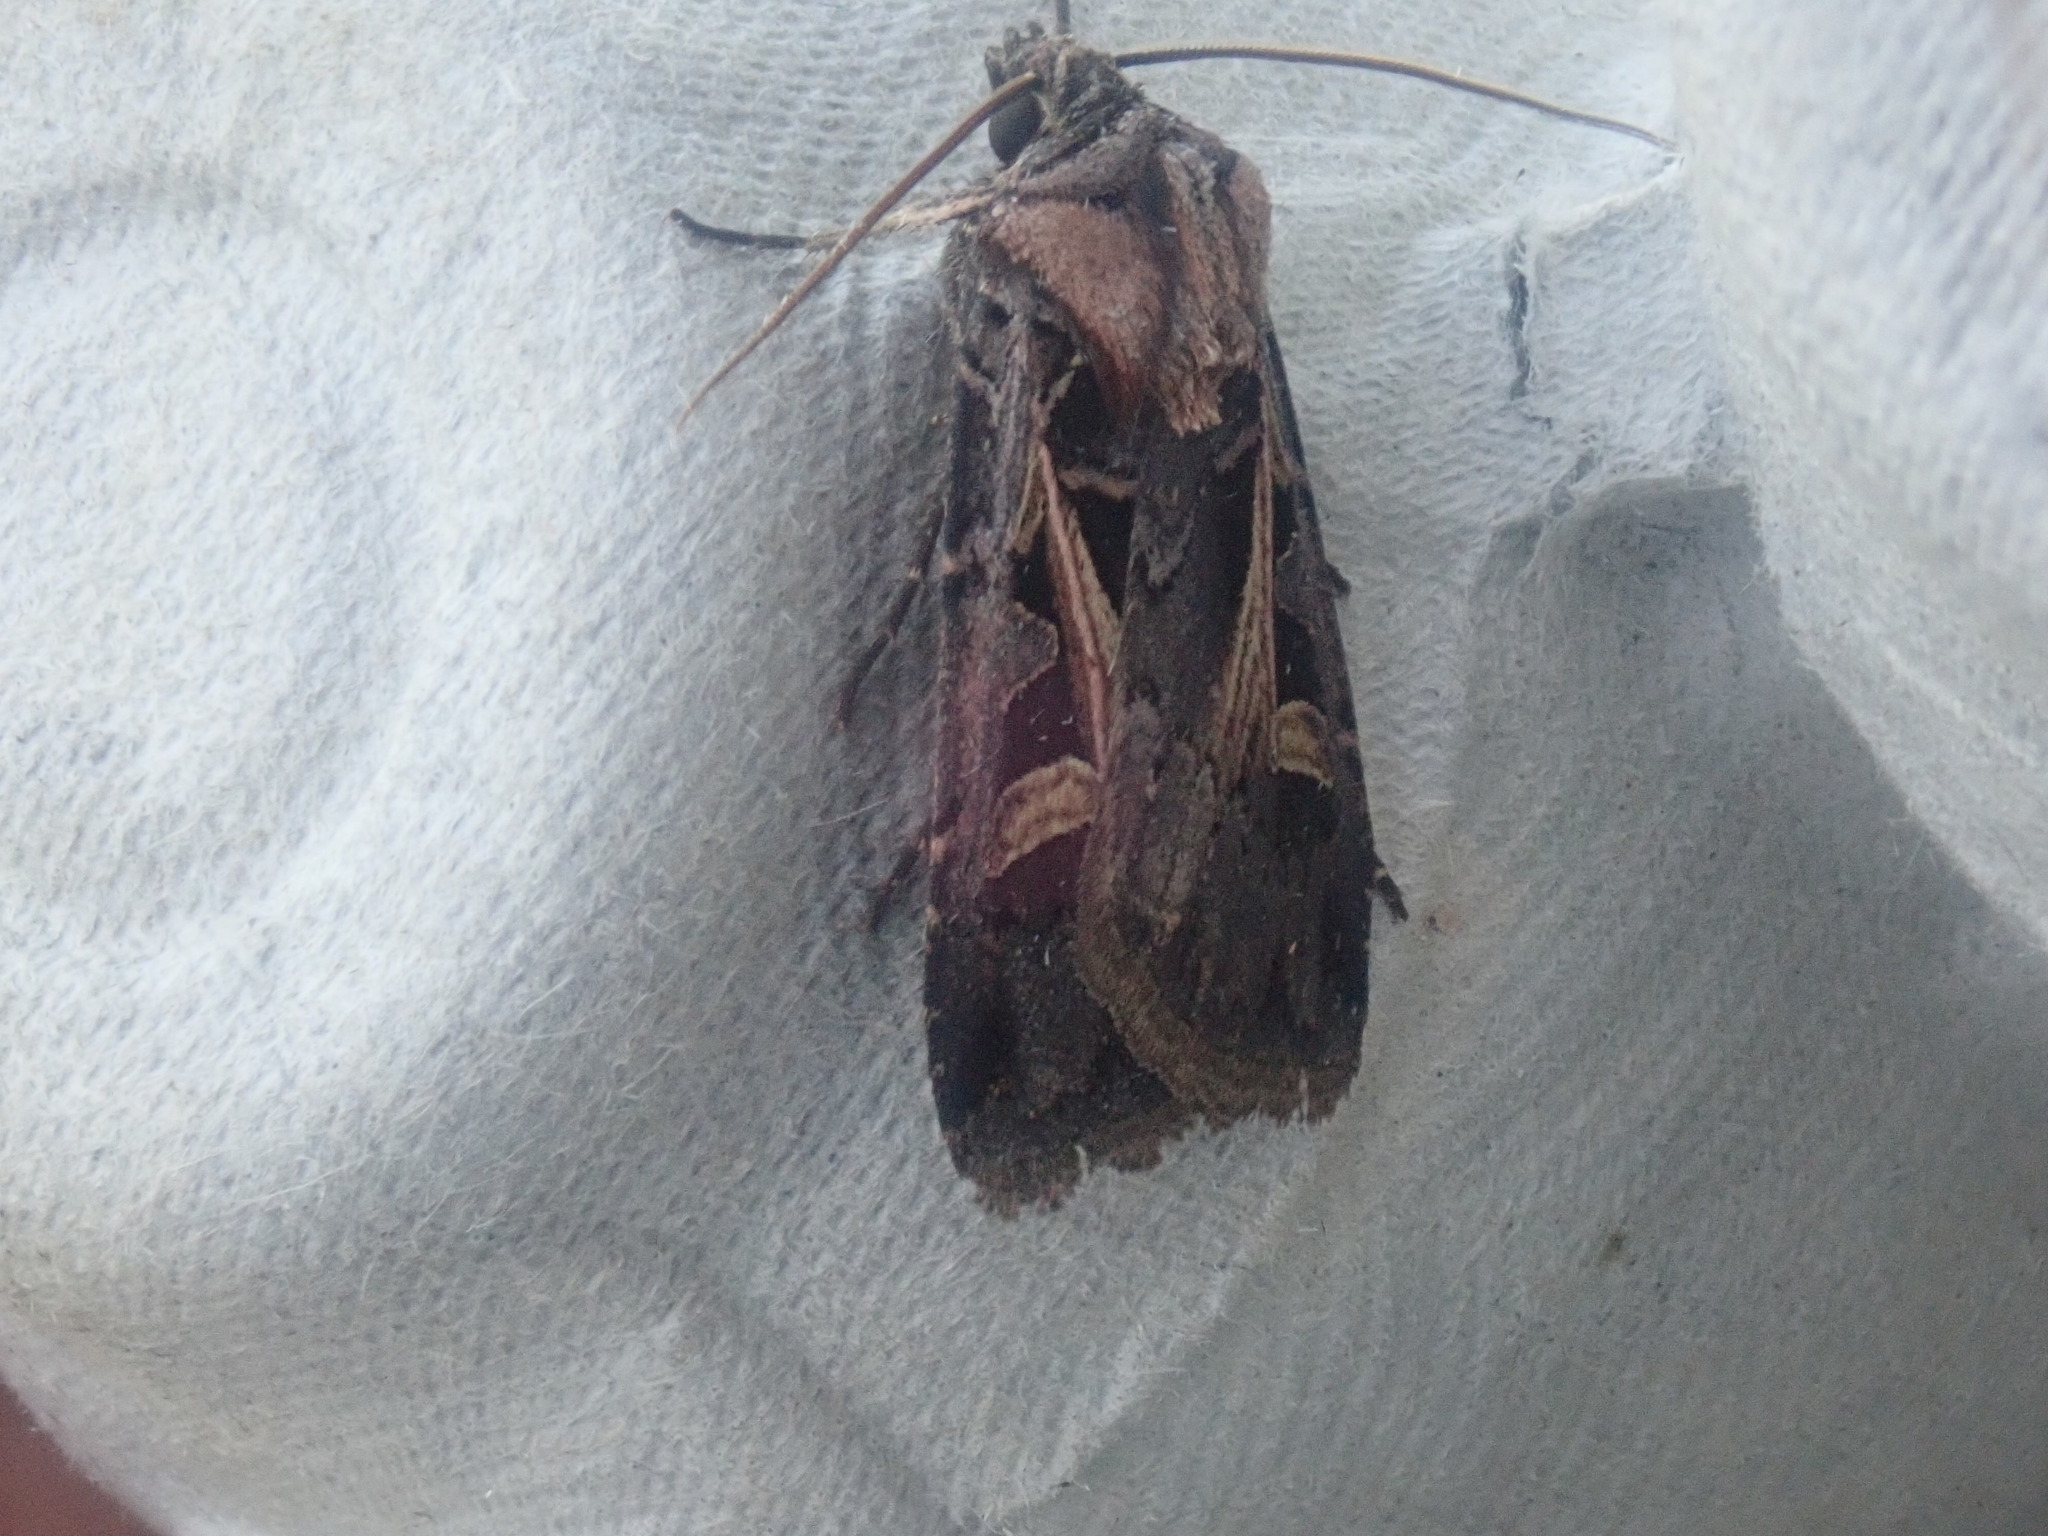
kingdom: Animalia
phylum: Arthropoda
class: Insecta
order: Lepidoptera
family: Noctuidae
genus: Feltia
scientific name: Feltia herilis
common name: Master's dart
